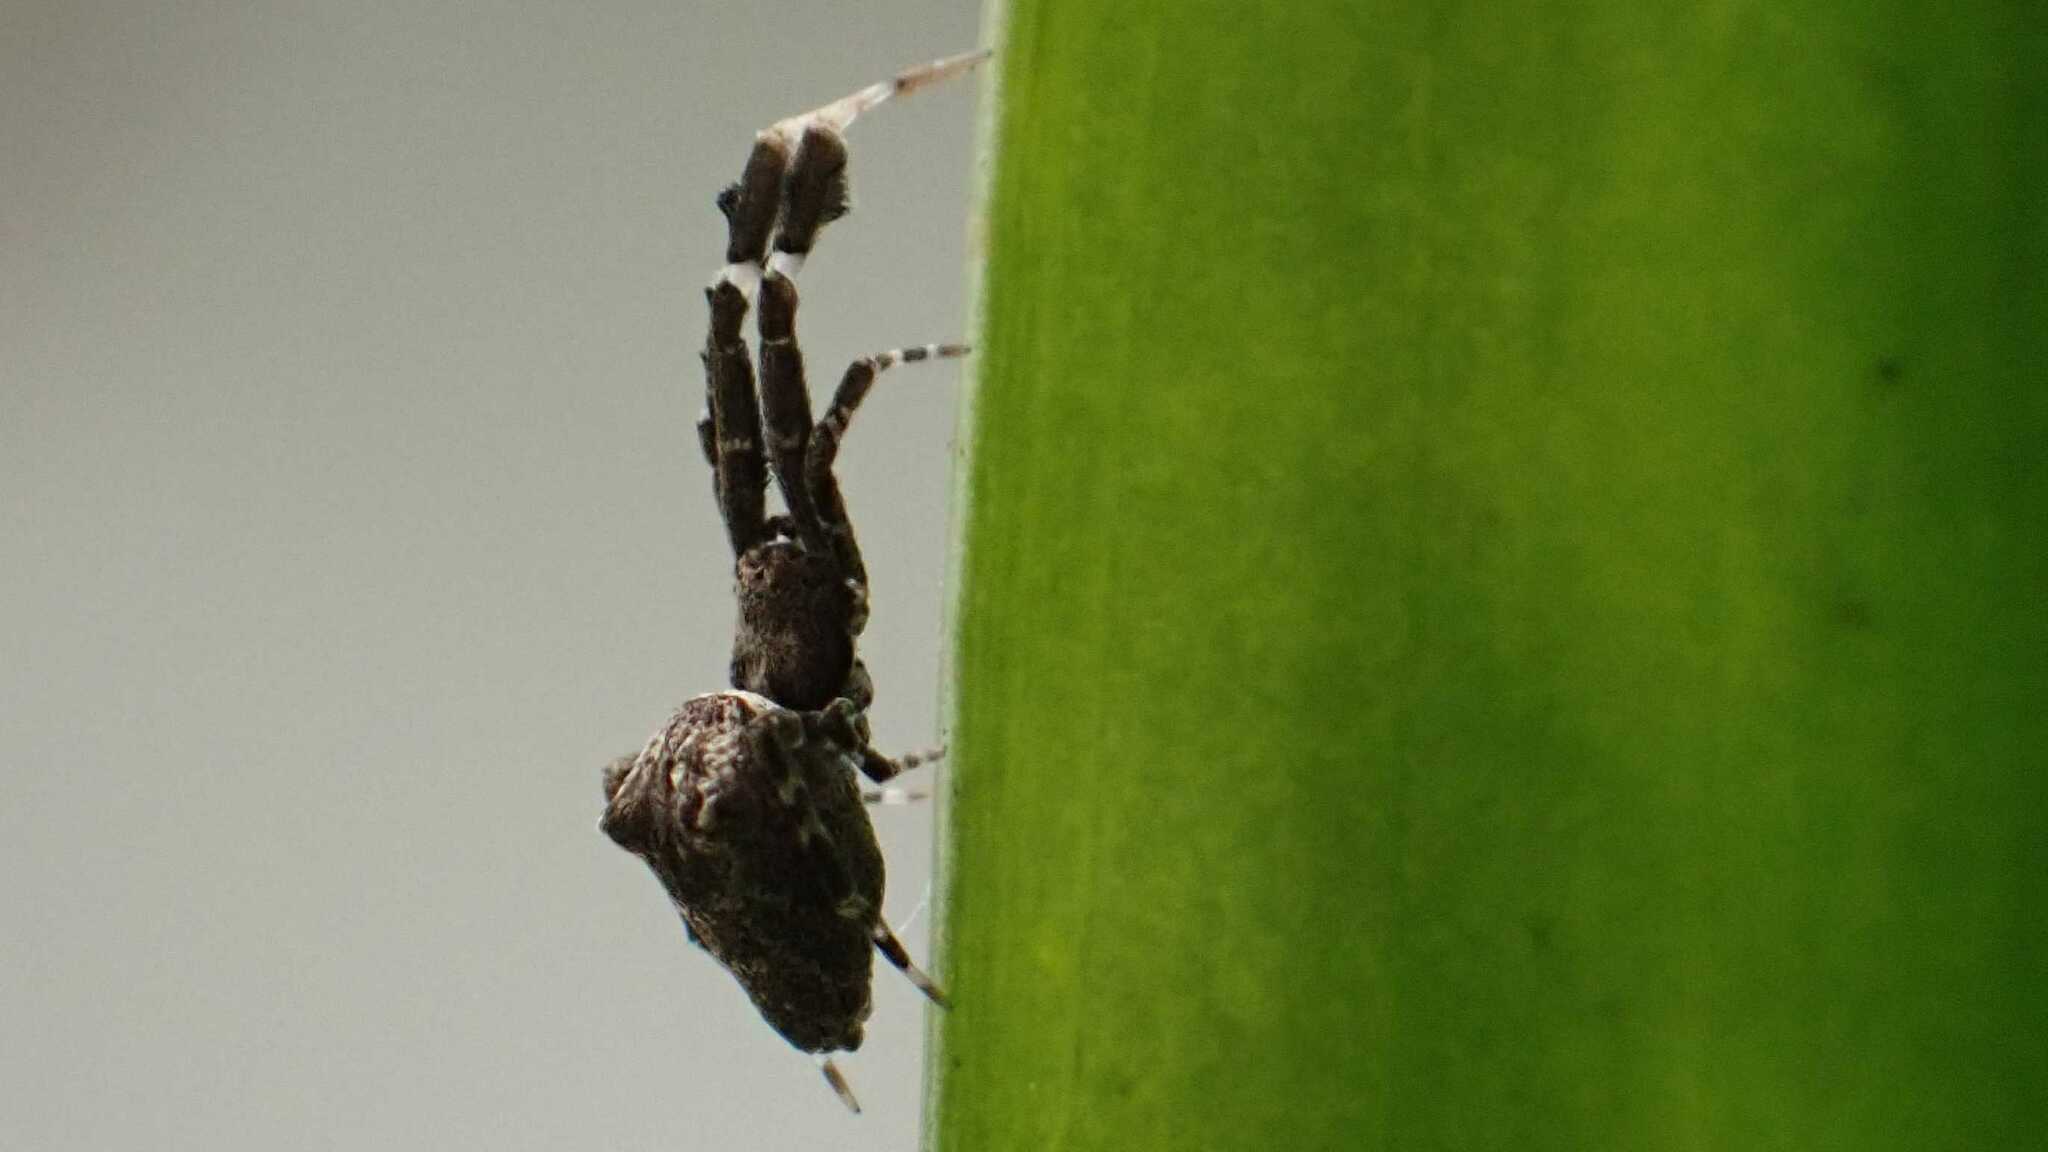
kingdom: Animalia
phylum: Arthropoda
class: Arachnida
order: Araneae
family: Uloboridae
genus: Uloborus
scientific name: Uloborus plumipes
